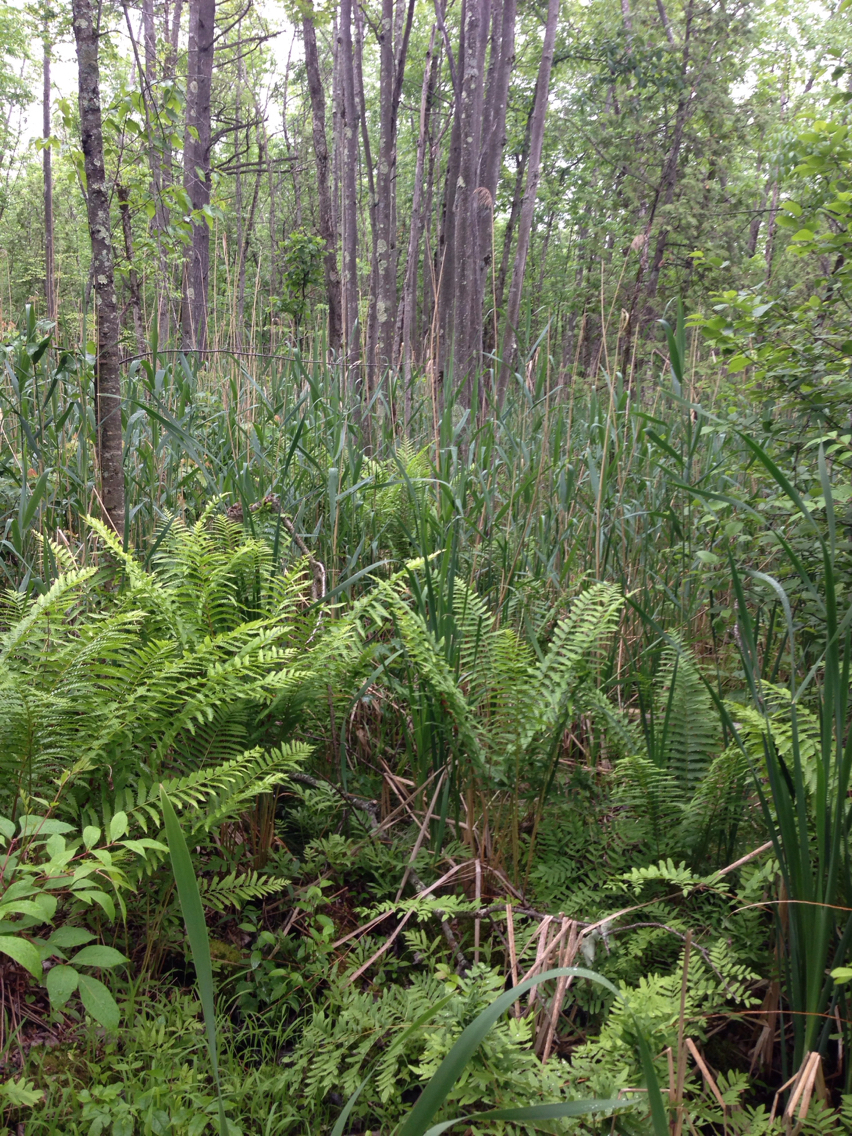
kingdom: Plantae
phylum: Tracheophyta
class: Liliopsida
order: Poales
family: Poaceae
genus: Phragmites
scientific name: Phragmites australis
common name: Common reed
